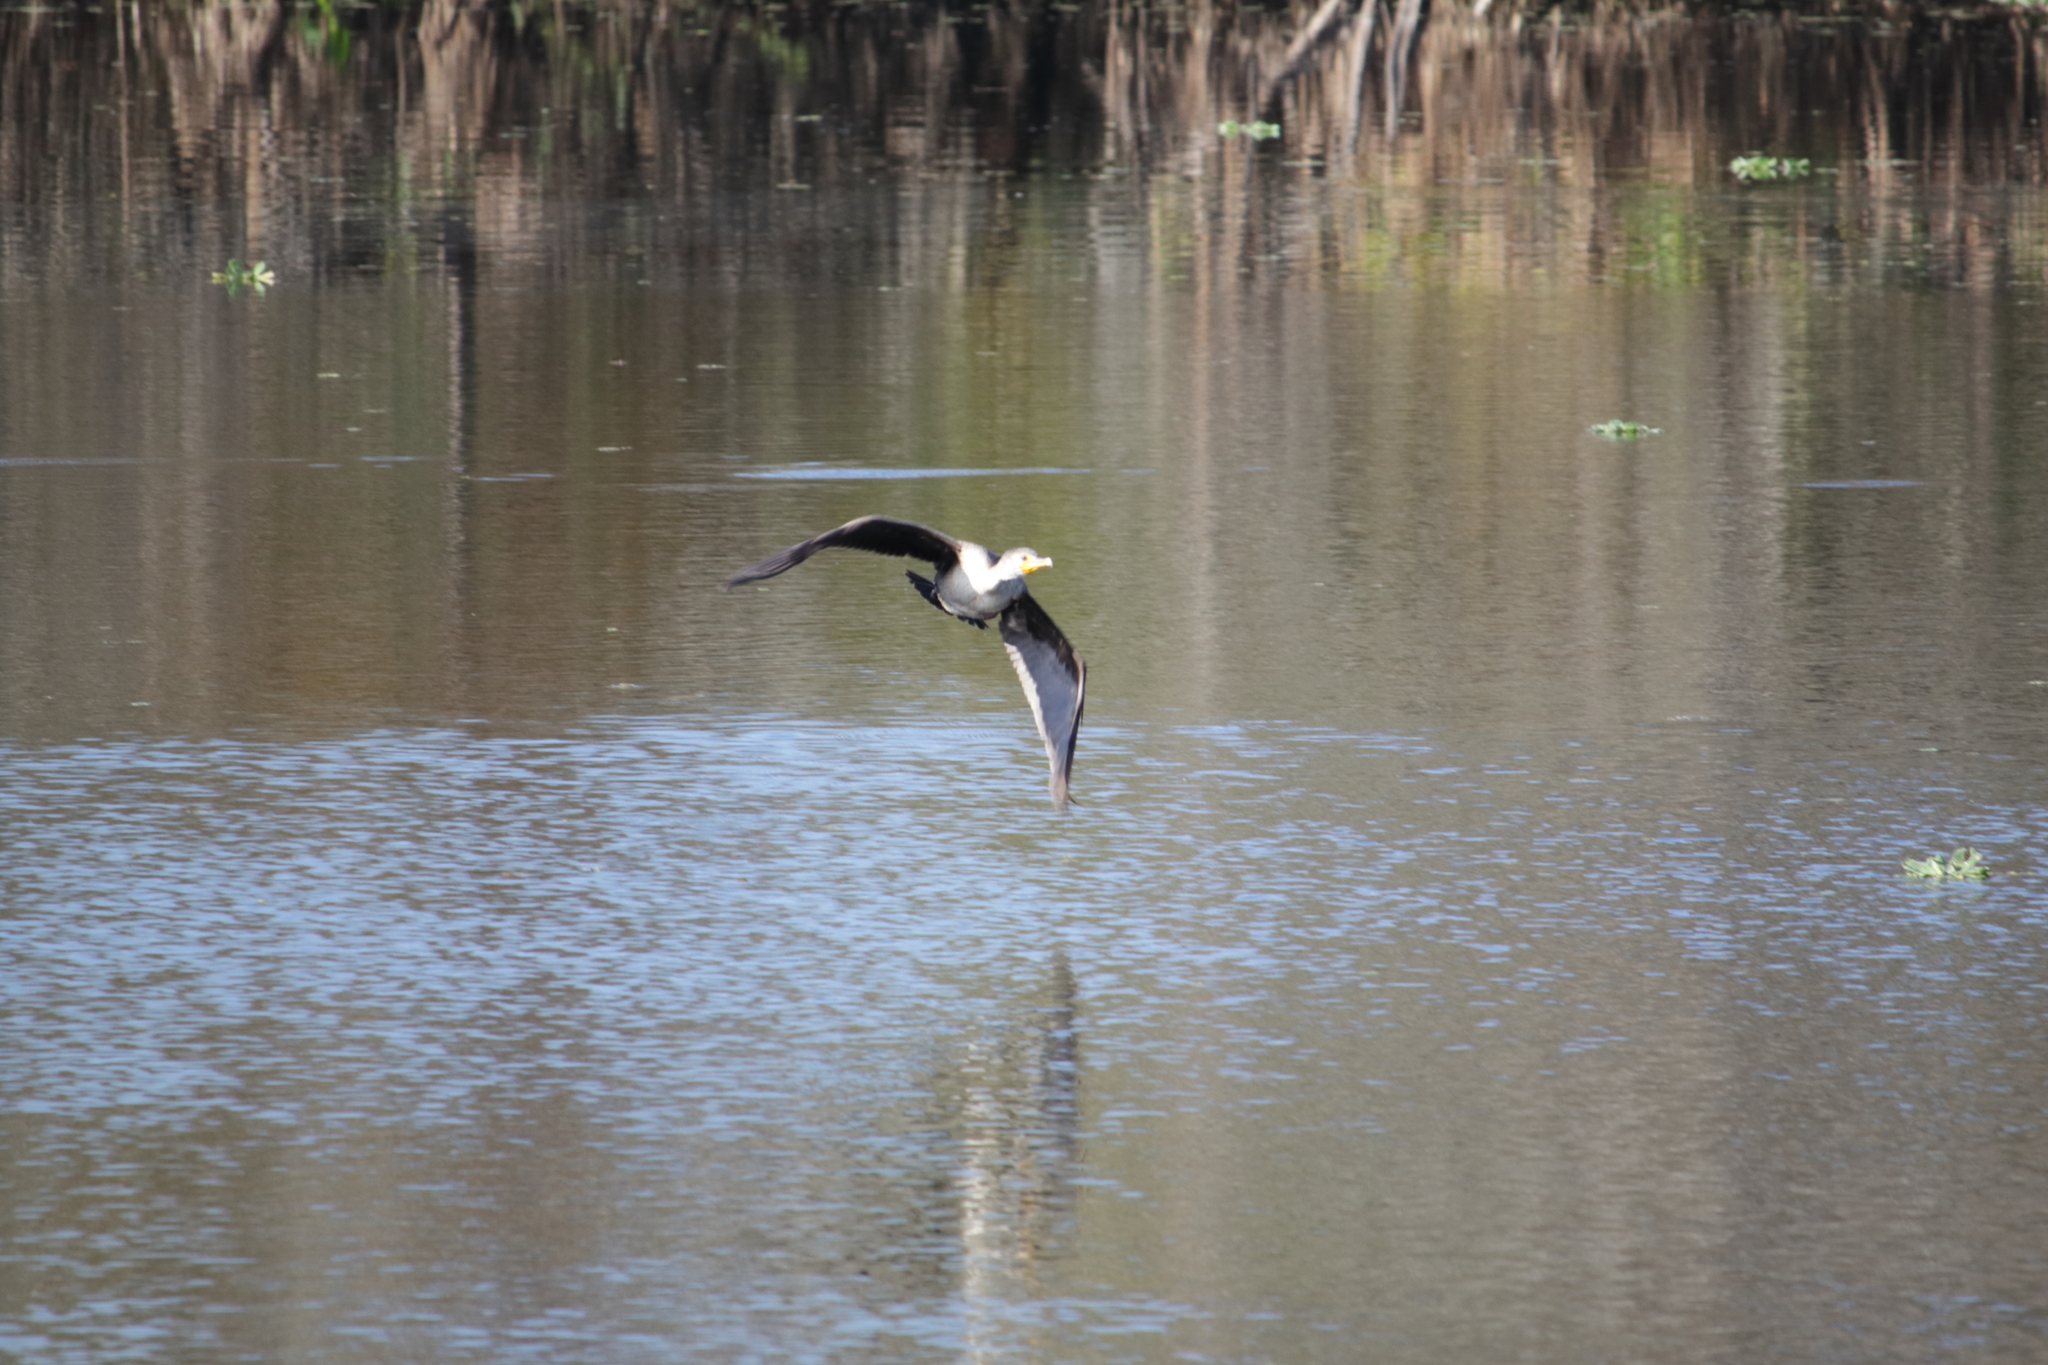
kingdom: Animalia
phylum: Chordata
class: Aves
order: Suliformes
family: Phalacrocoracidae
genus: Phalacrocorax
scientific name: Phalacrocorax auritus
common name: Double-crested cormorant
